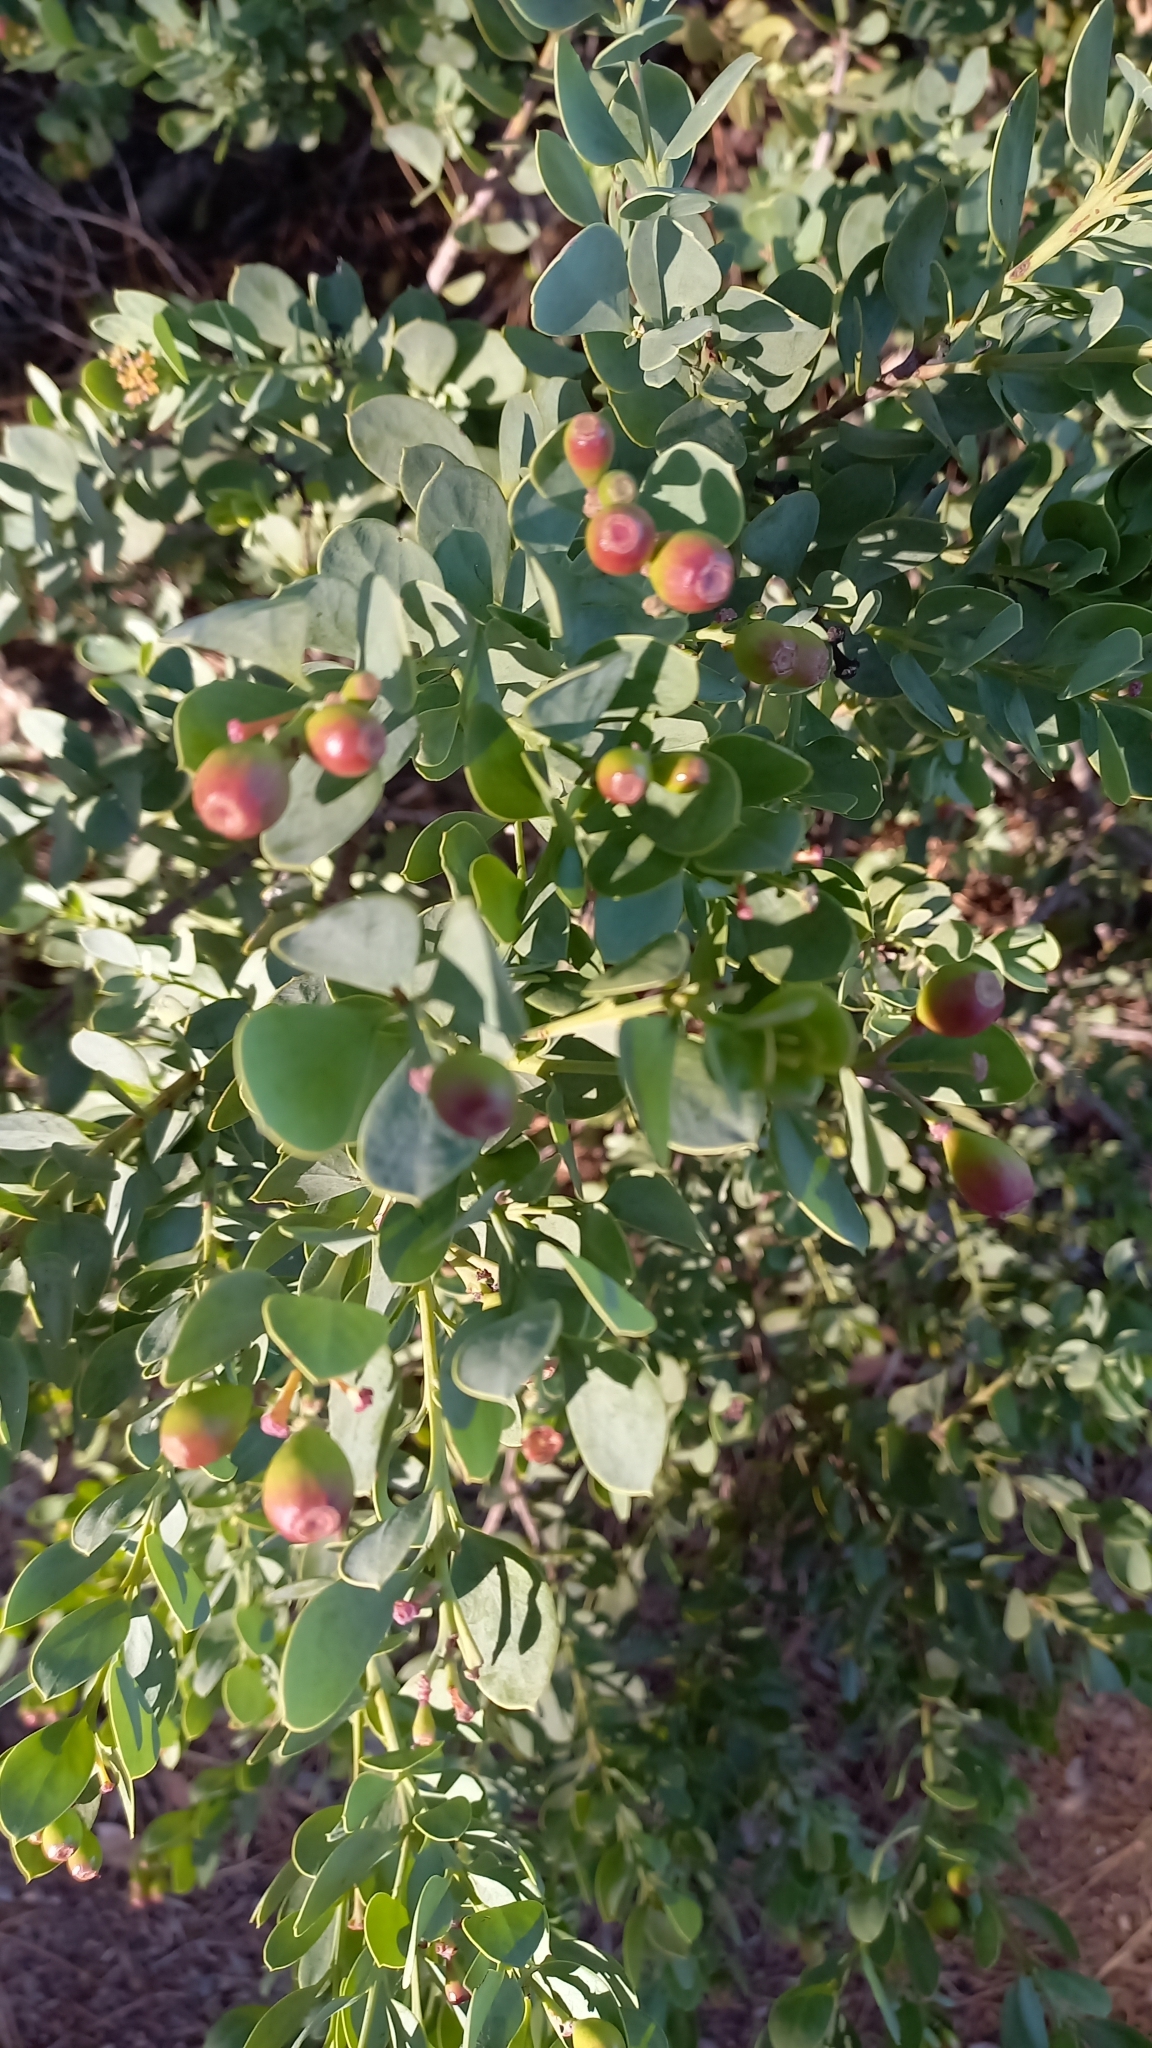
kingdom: Plantae
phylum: Tracheophyta
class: Magnoliopsida
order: Santalales
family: Santalaceae
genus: Osyris
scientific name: Osyris compressa
